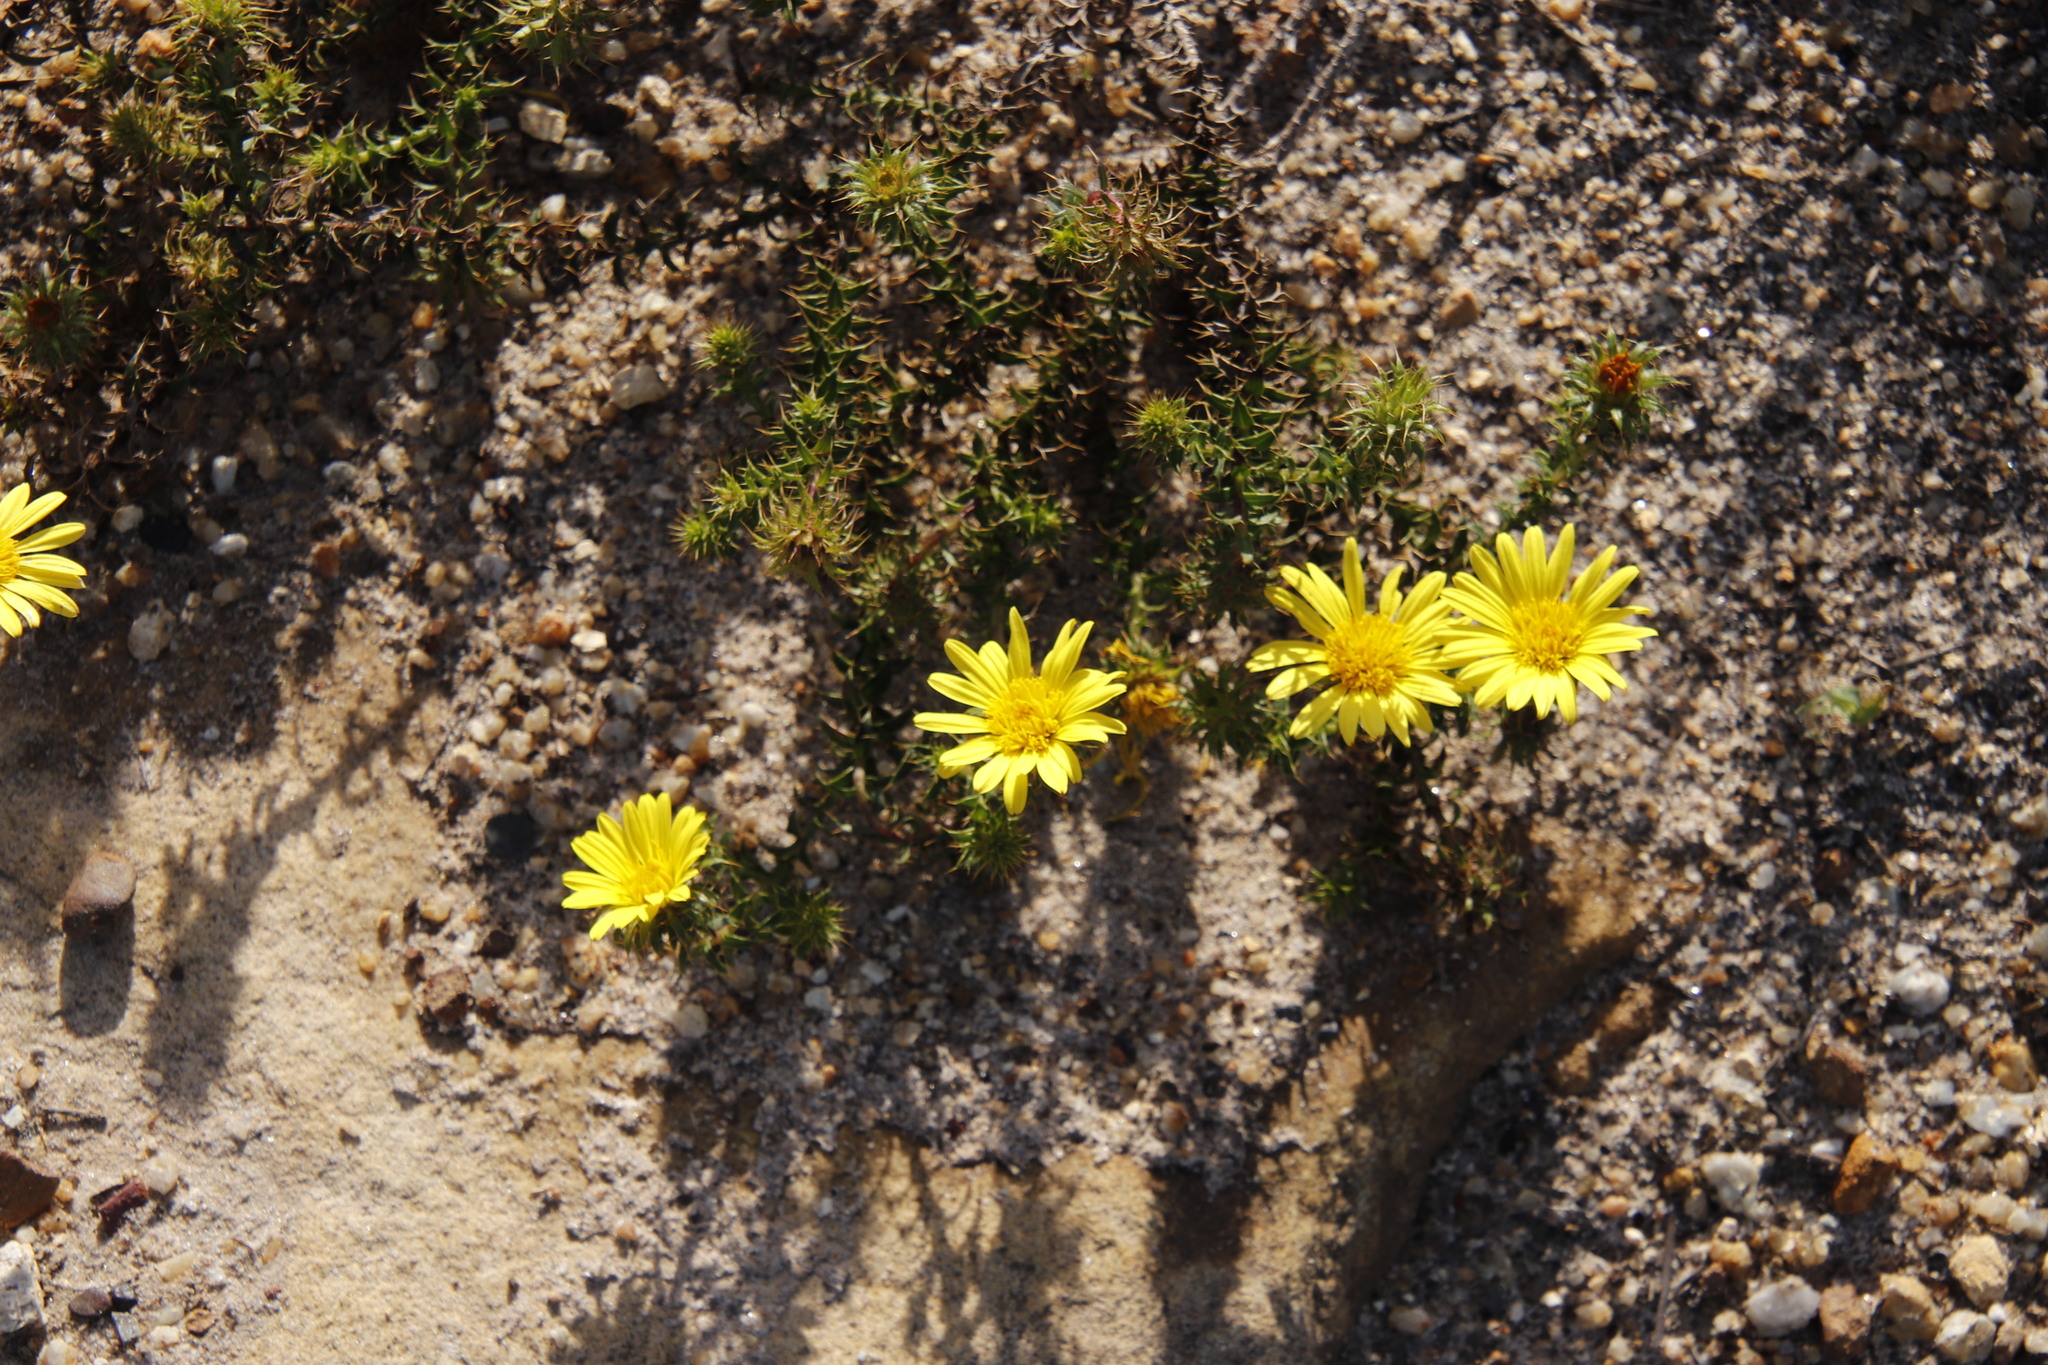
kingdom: Plantae
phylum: Tracheophyta
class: Magnoliopsida
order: Asterales
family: Asteraceae
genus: Cullumia
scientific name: Cullumia setosa
